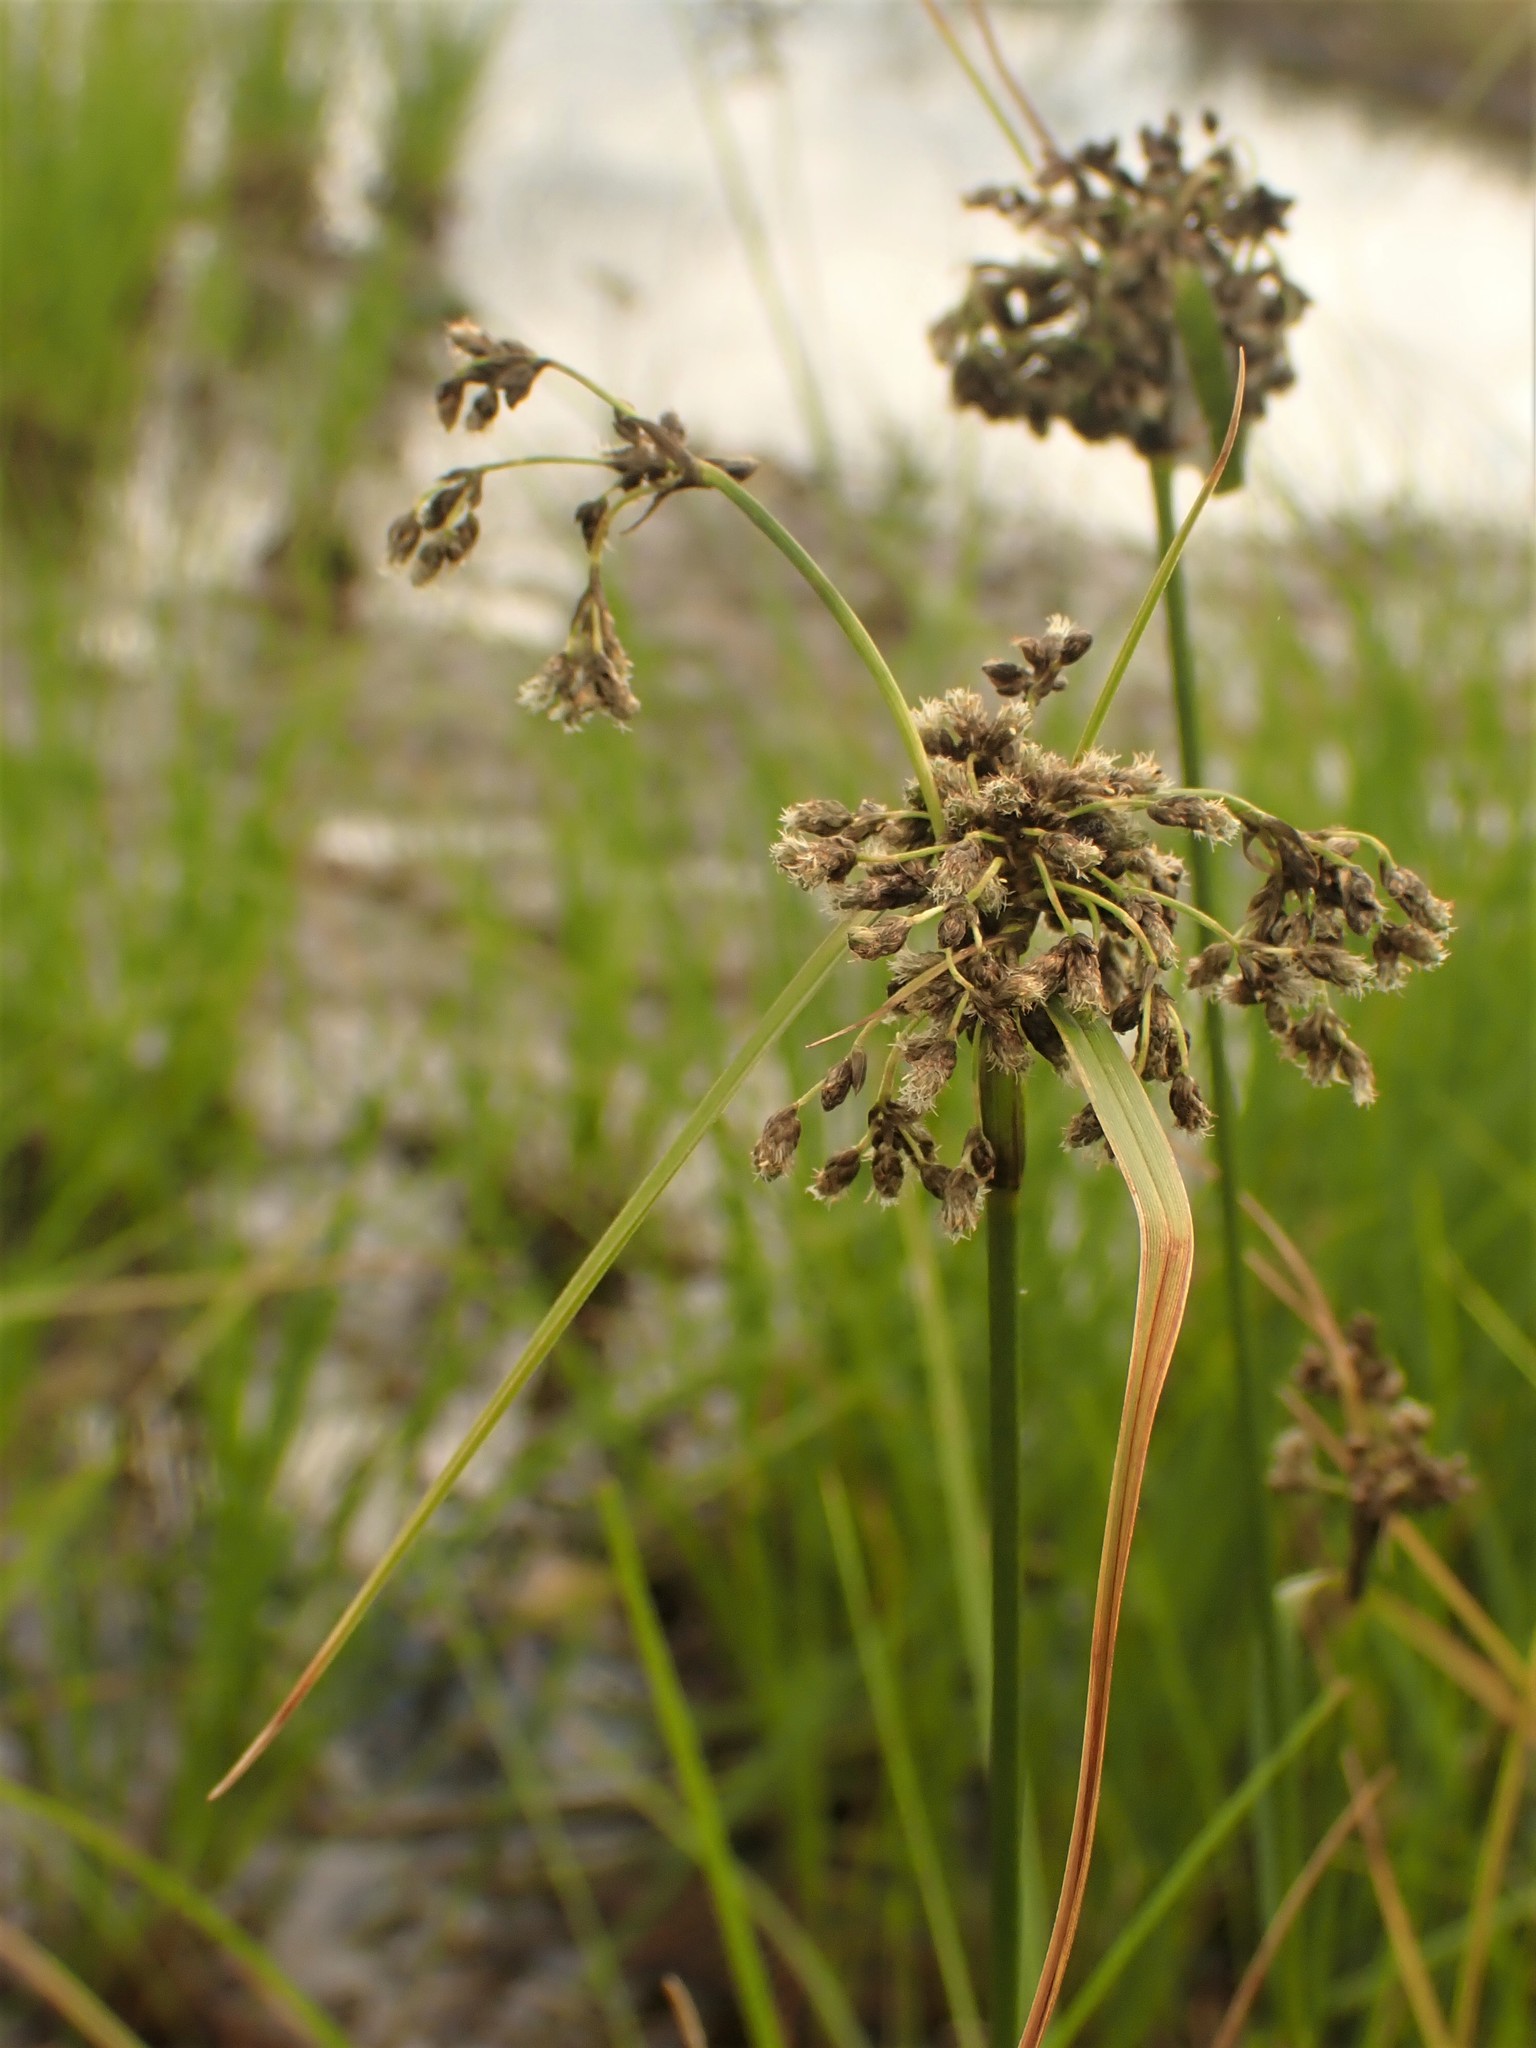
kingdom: Plantae
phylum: Tracheophyta
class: Liliopsida
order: Poales
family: Cyperaceae
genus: Scirpus
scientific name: Scirpus atrocinctus
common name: Black-girdled bulrush
